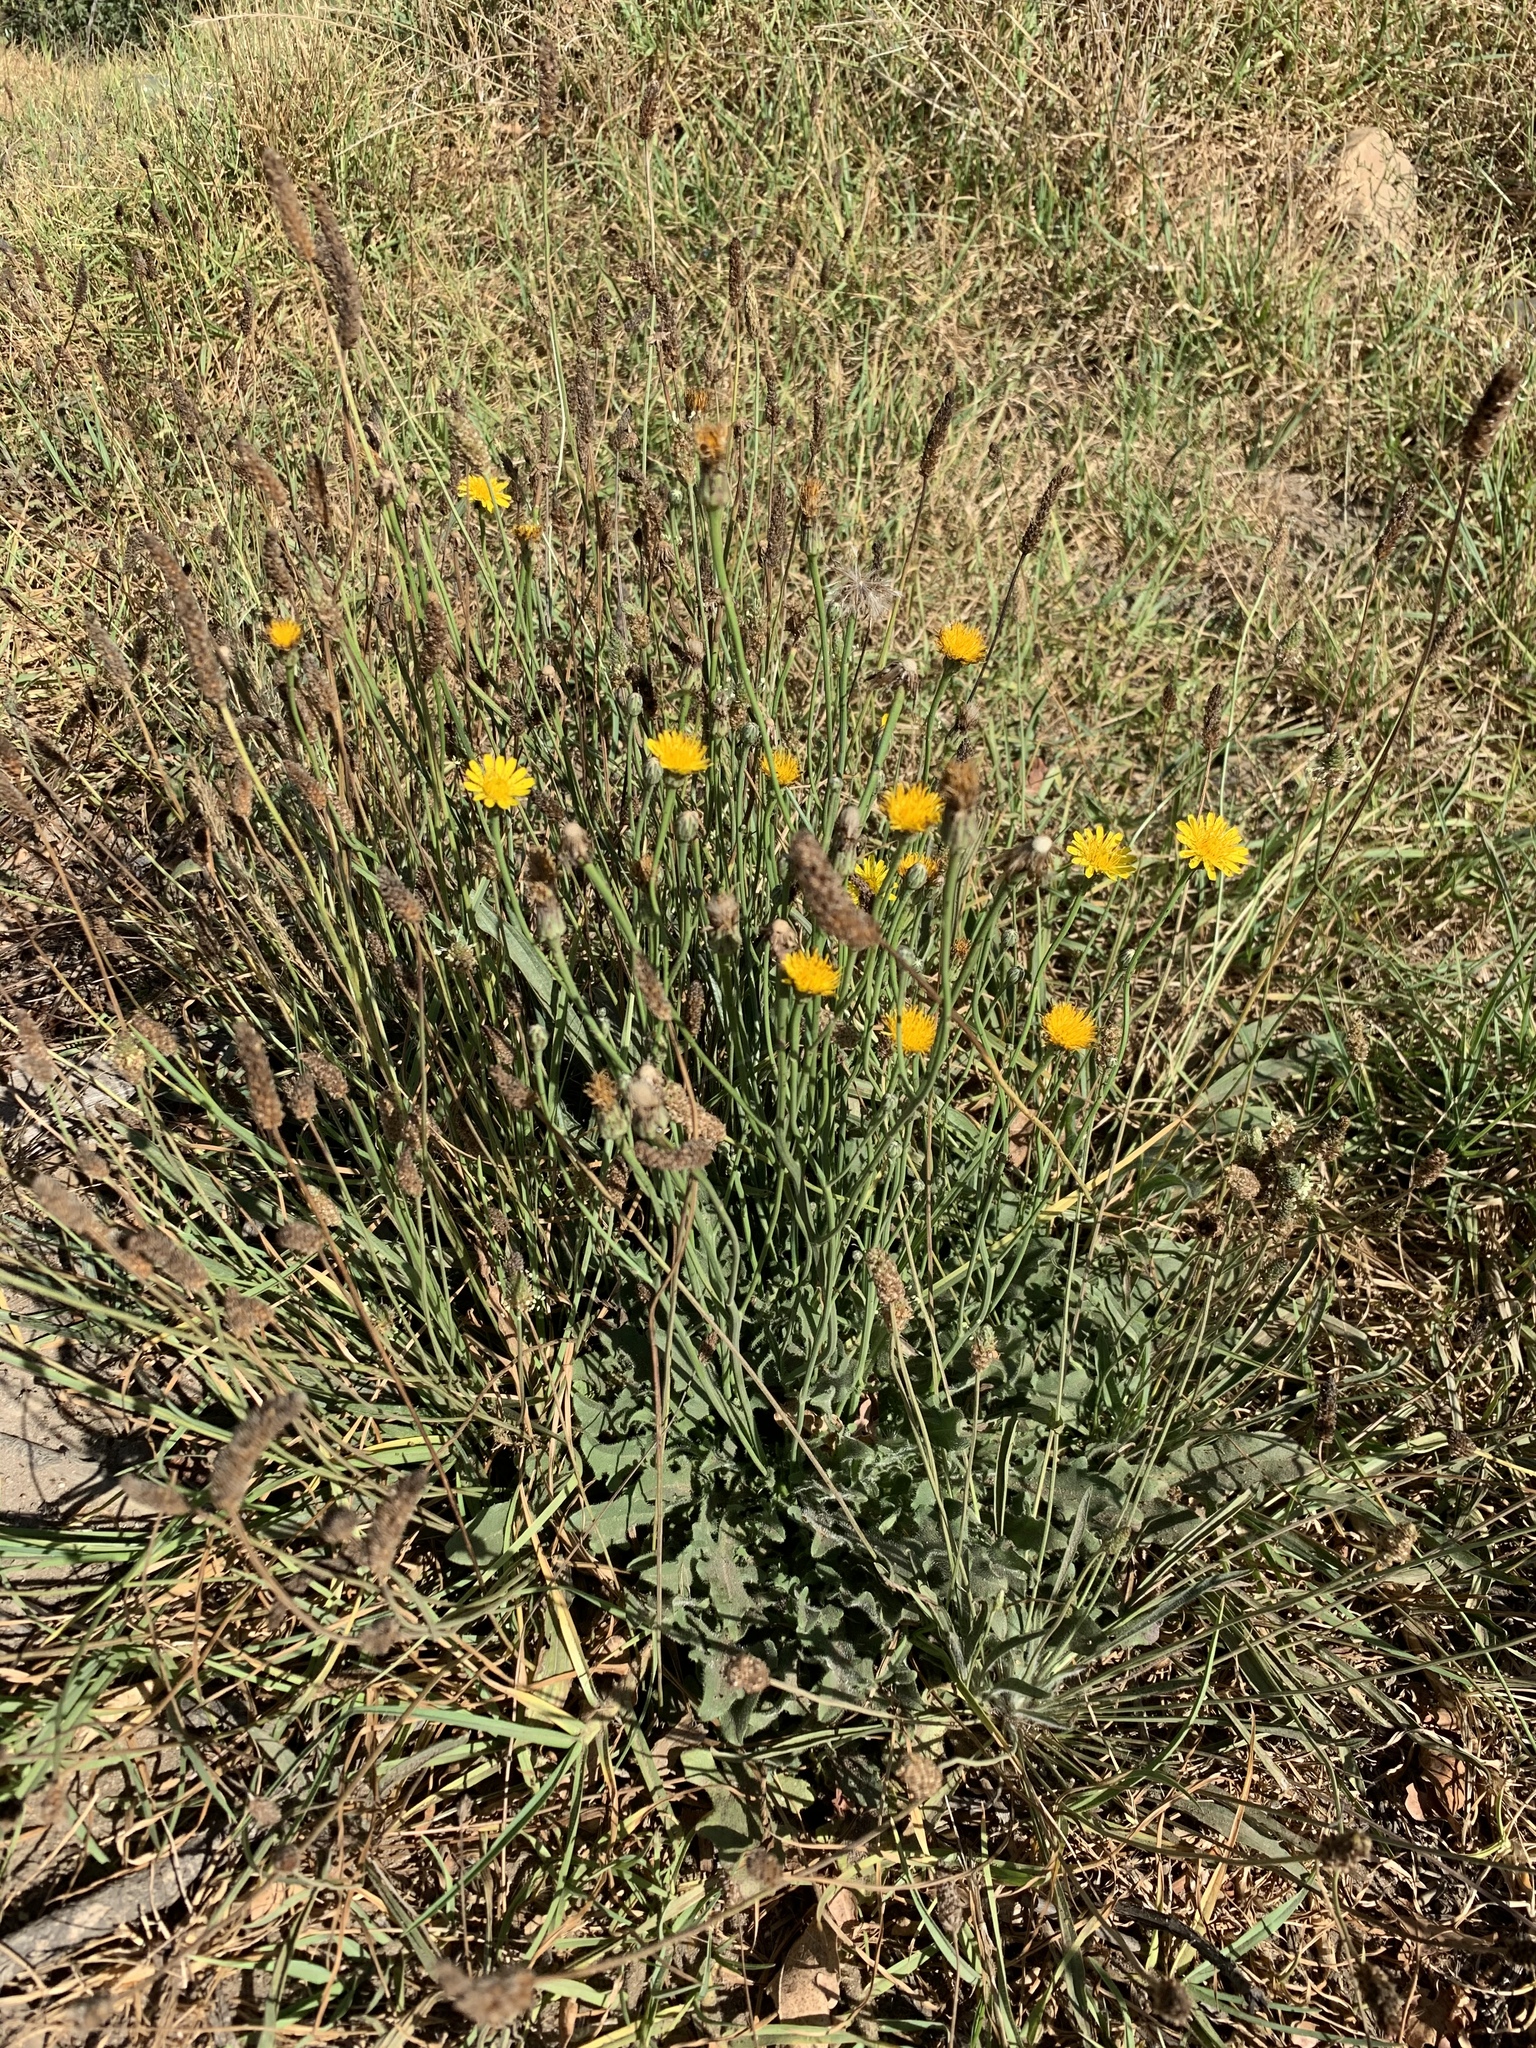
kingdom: Plantae
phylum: Tracheophyta
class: Magnoliopsida
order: Asterales
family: Asteraceae
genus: Hypochaeris
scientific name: Hypochaeris radicata
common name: Flatweed
